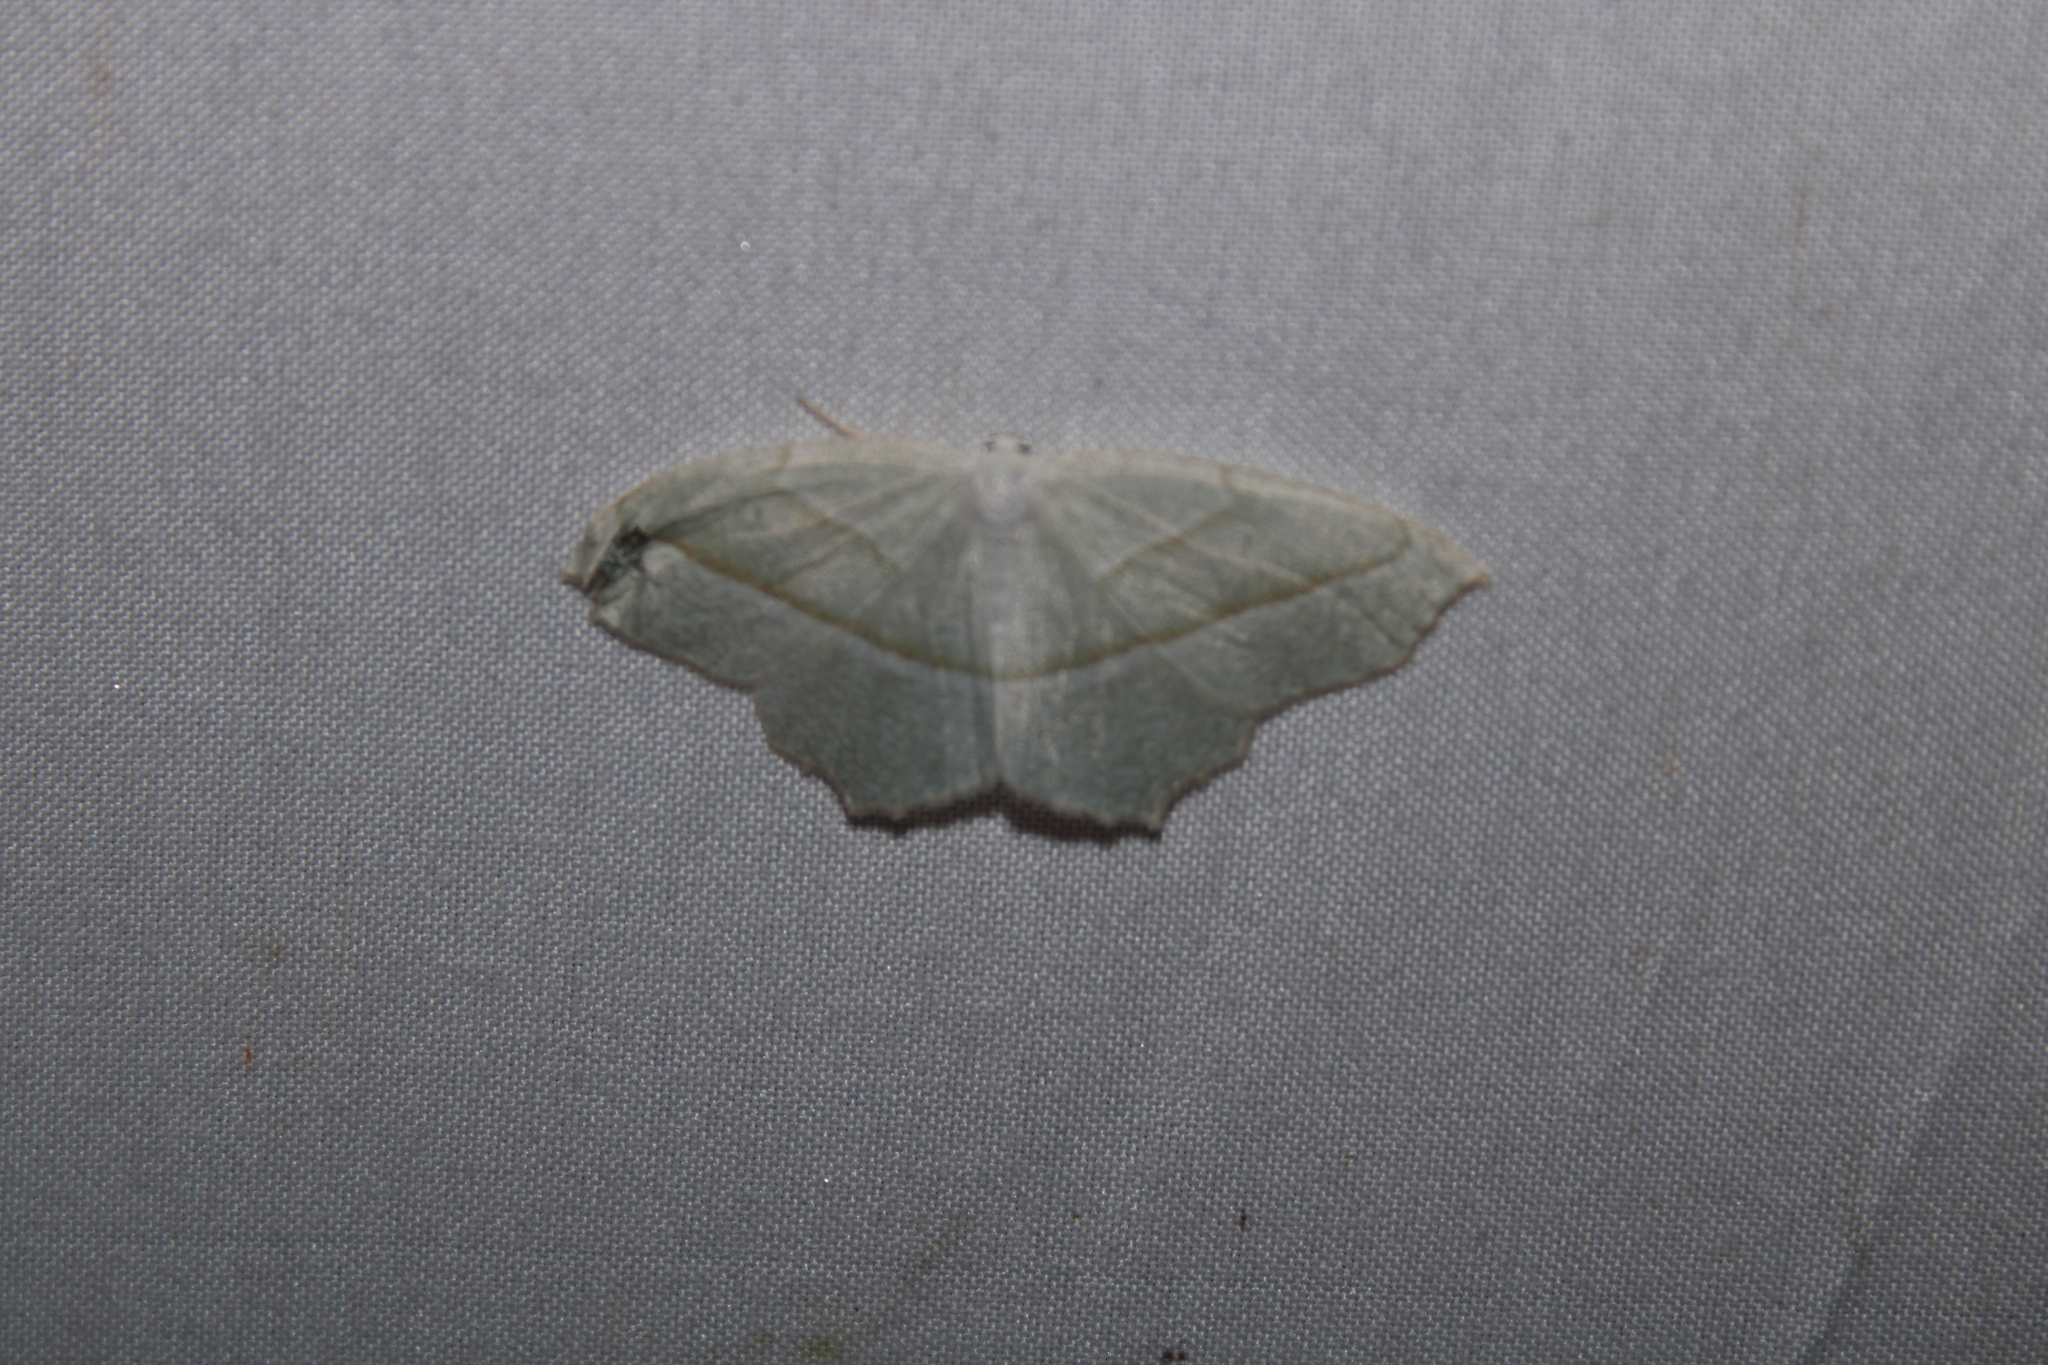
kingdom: Animalia
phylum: Arthropoda
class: Insecta
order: Lepidoptera
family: Geometridae
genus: Campaea
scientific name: Campaea perlata
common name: Fringed looper
